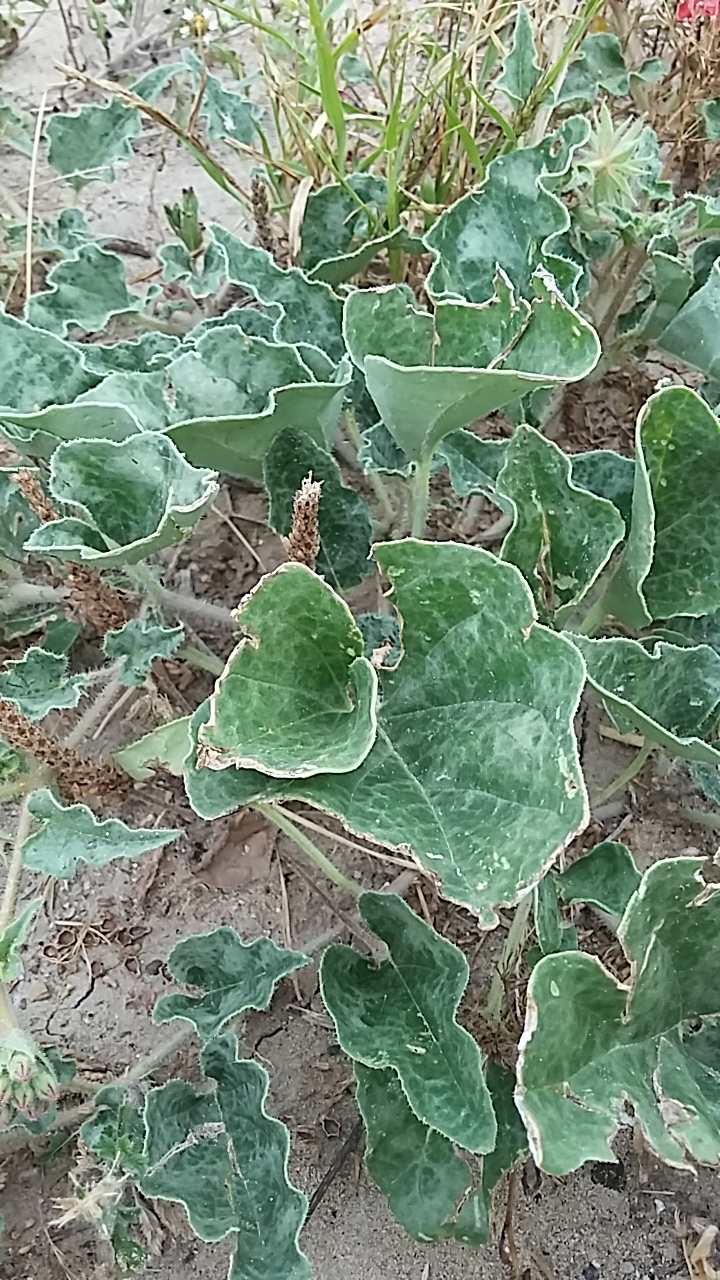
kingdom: Plantae
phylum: Tracheophyta
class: Magnoliopsida
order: Caryophyllales
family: Nyctaginaceae
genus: Nyctaginia
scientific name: Nyctaginia capitata
